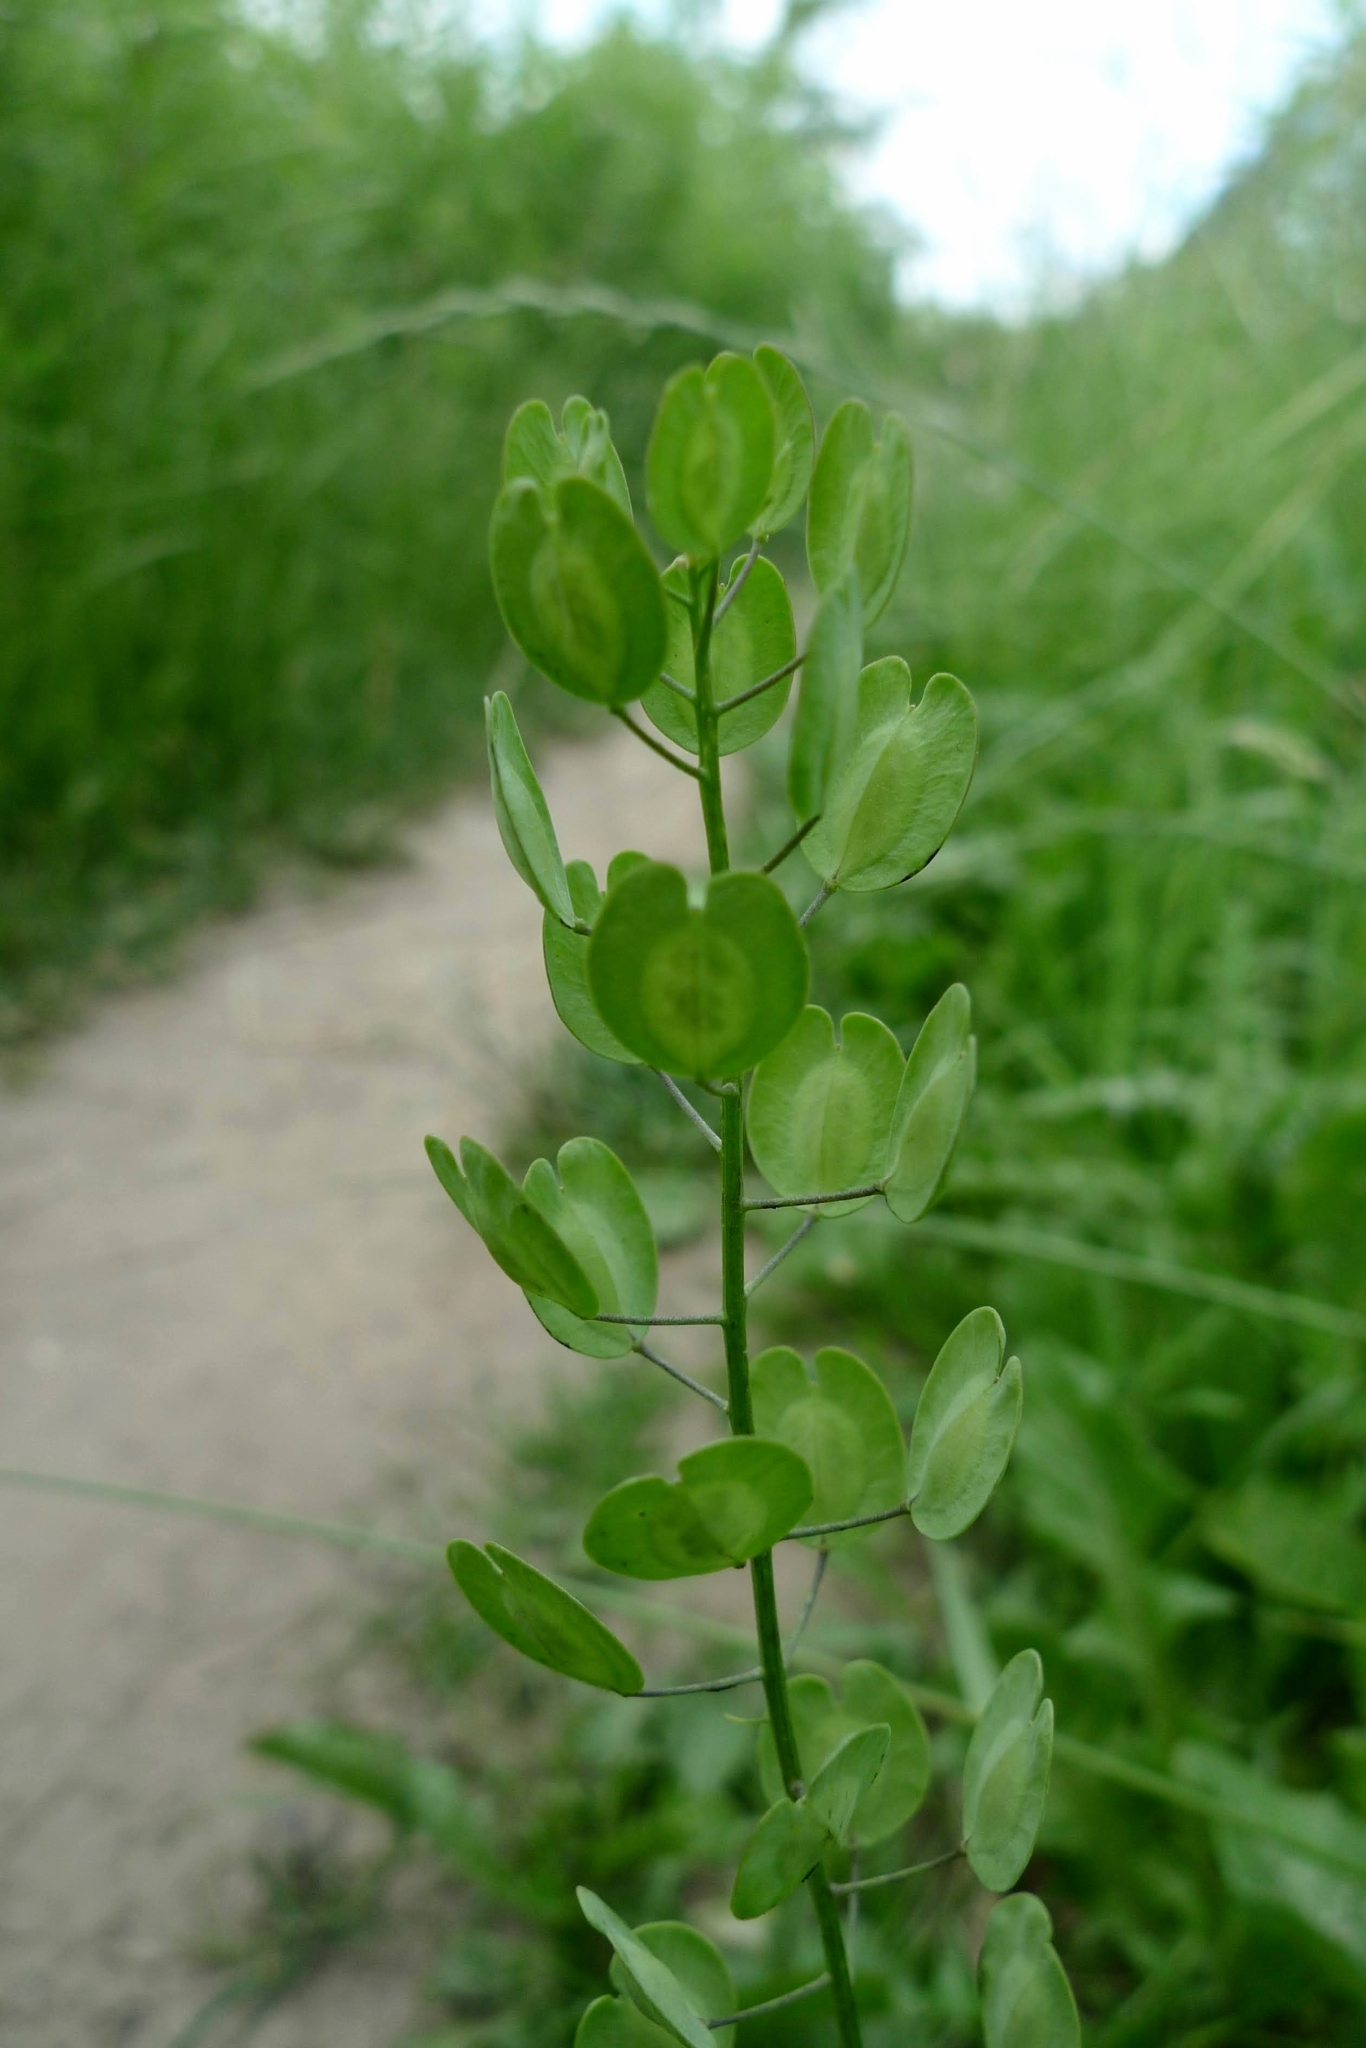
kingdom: Plantae
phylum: Tracheophyta
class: Magnoliopsida
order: Brassicales
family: Brassicaceae
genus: Thlaspi
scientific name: Thlaspi arvense
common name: Field pennycress
